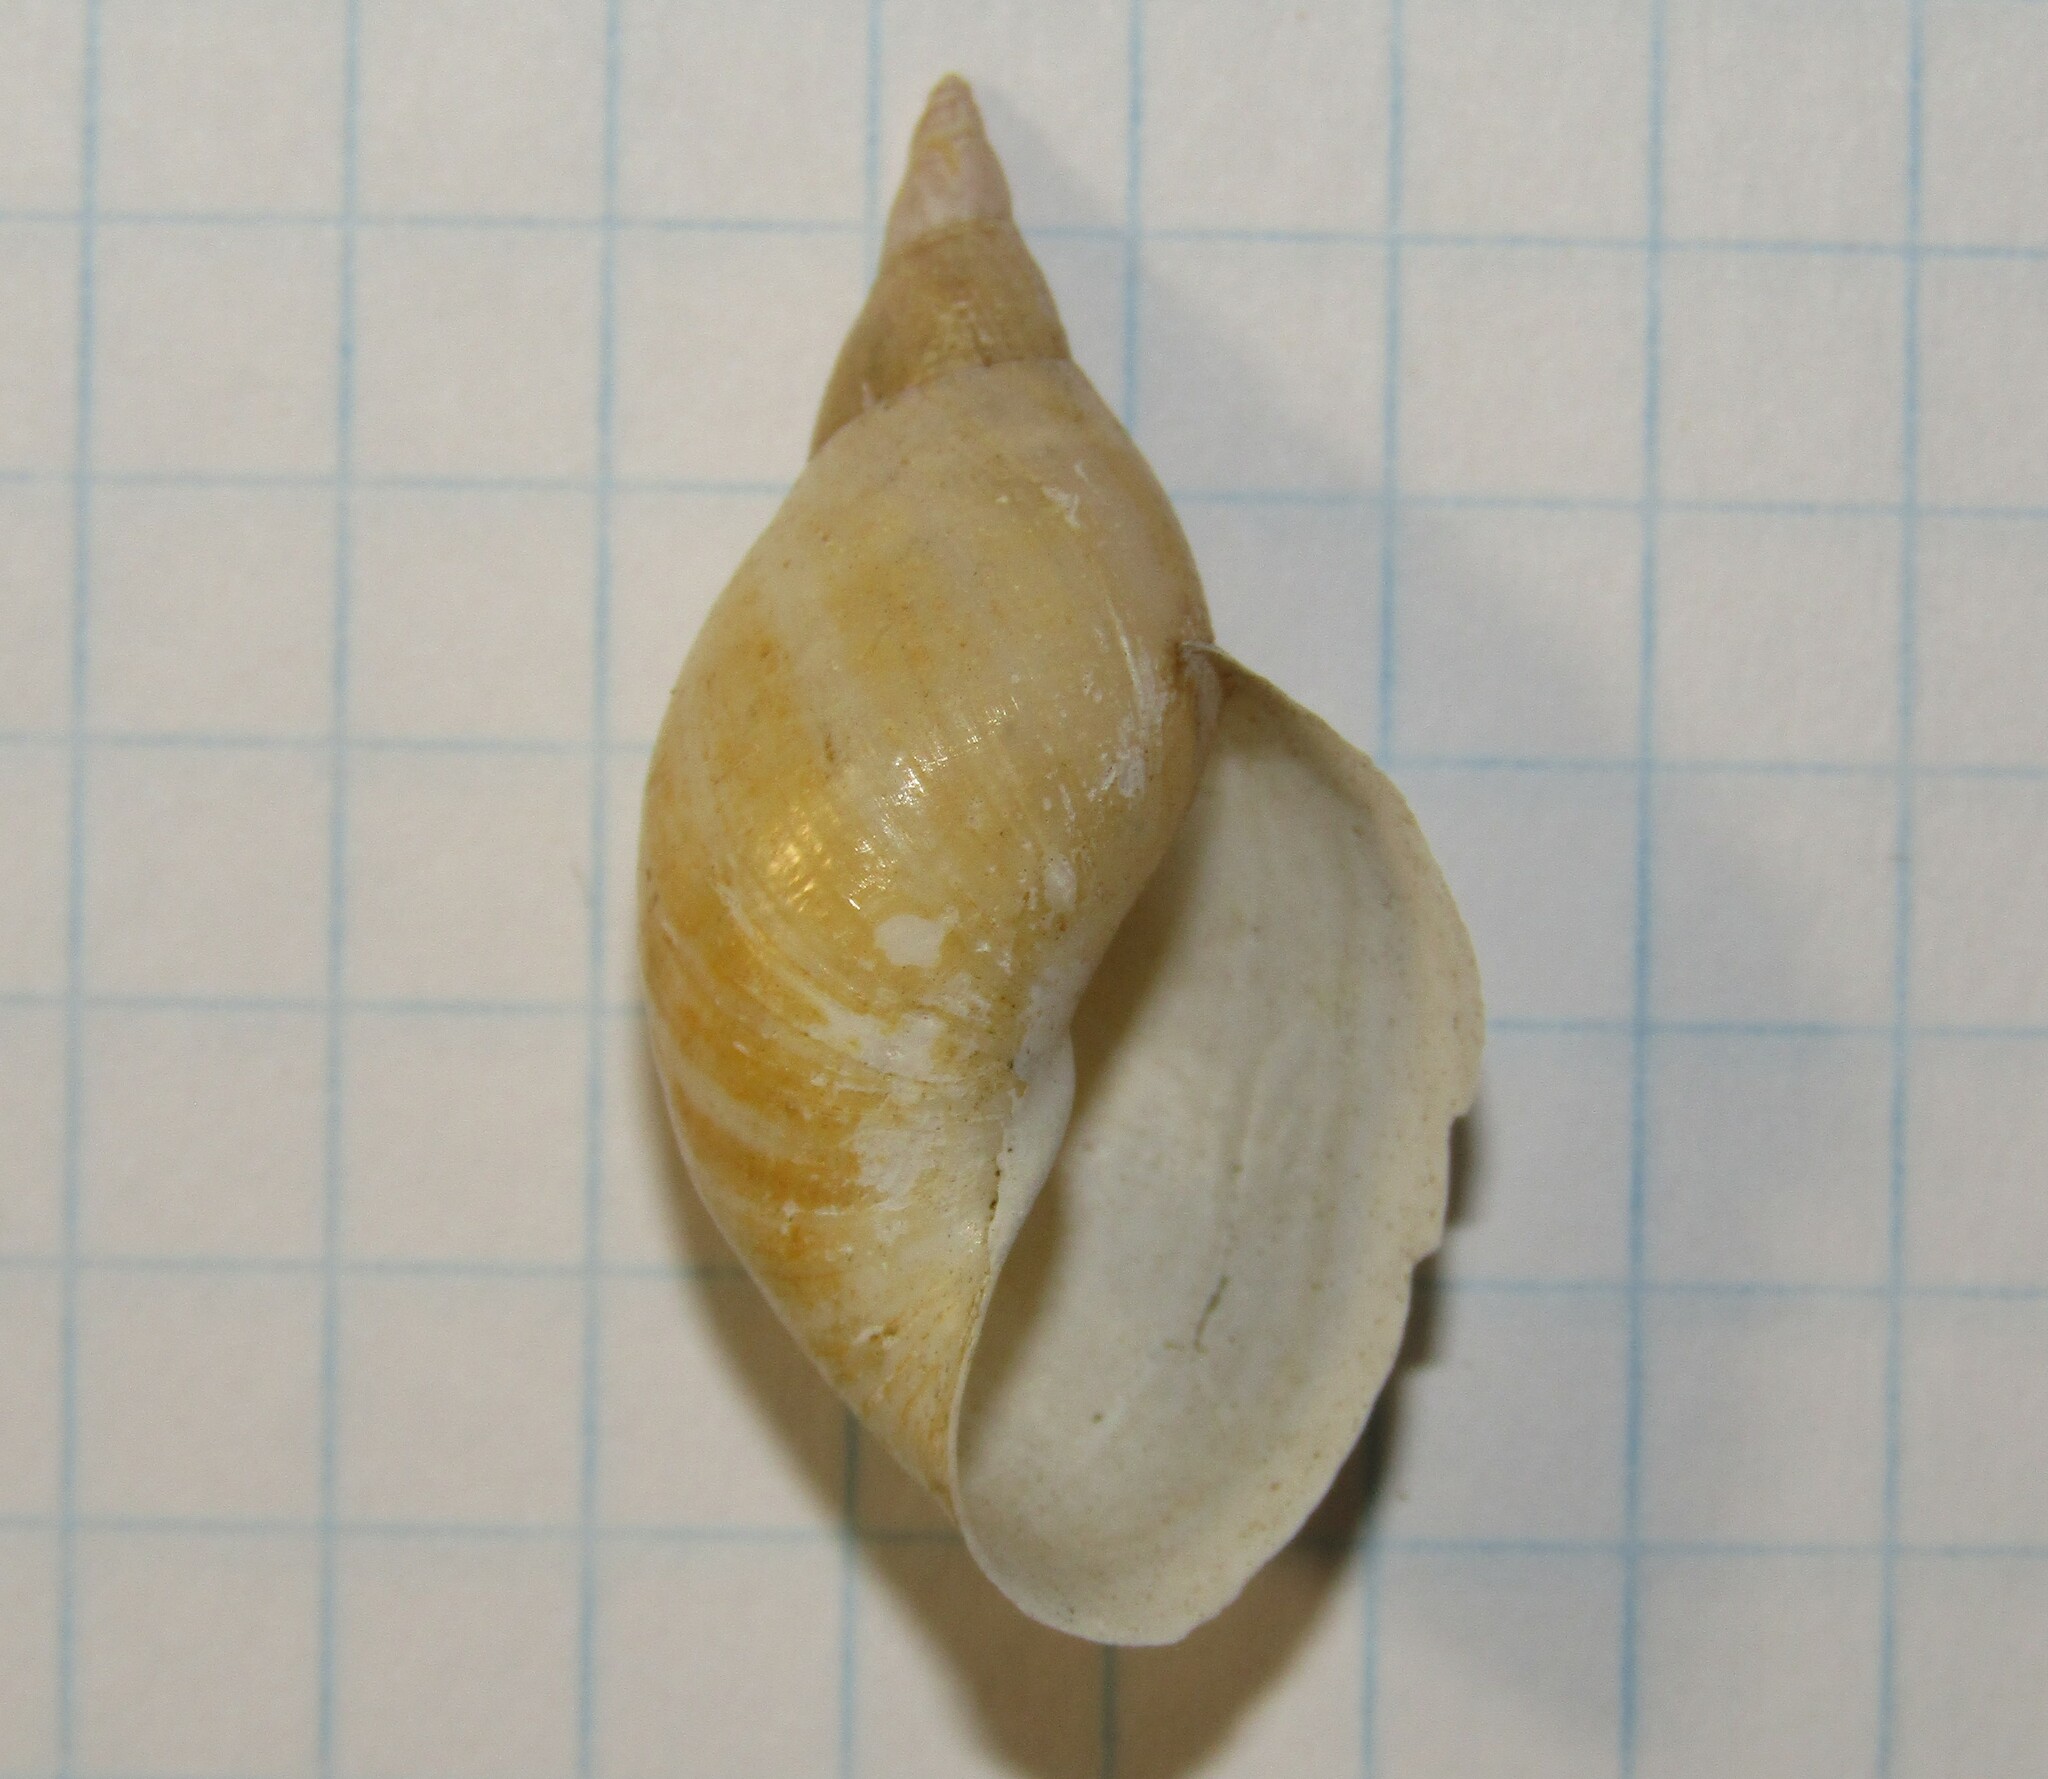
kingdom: Animalia
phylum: Mollusca
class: Gastropoda
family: Lymnaeidae
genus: Lymnaea
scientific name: Lymnaea stagnalis
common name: Great pond snail
